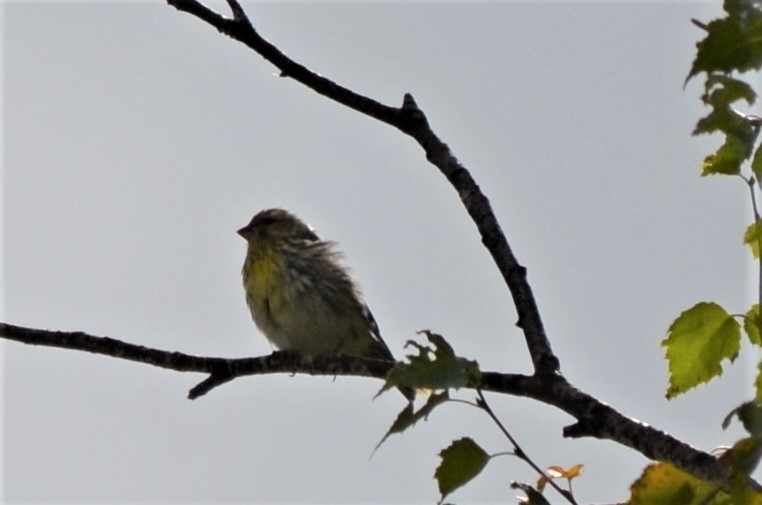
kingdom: Animalia
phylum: Chordata
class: Aves
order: Passeriformes
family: Fringillidae
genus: Serinus
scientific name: Serinus serinus
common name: European serin
